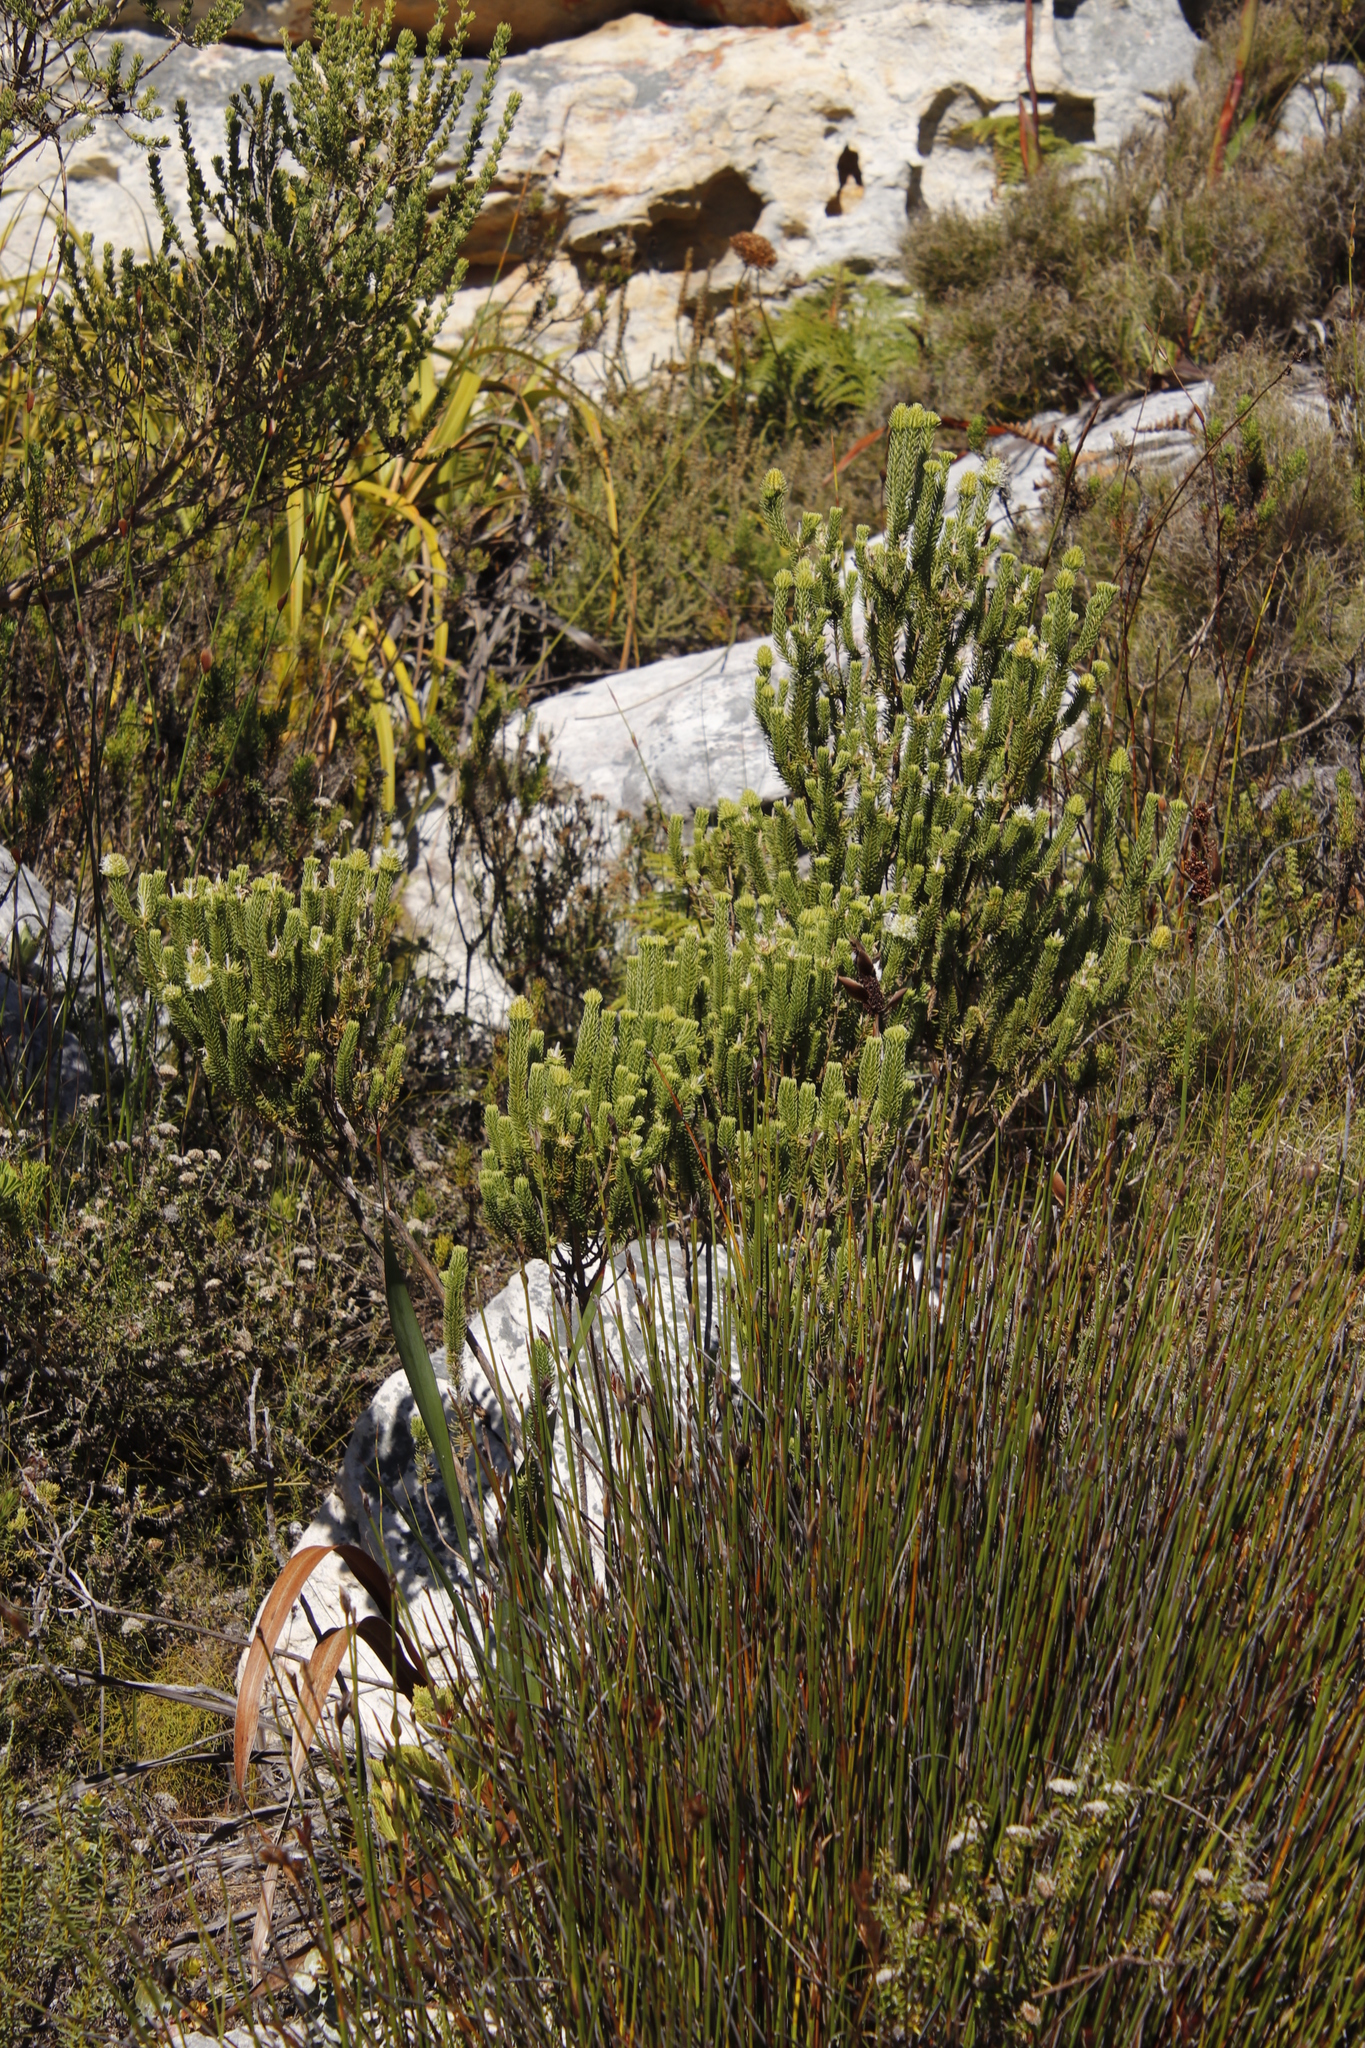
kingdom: Plantae
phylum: Tracheophyta
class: Magnoliopsida
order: Lamiales
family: Stilbaceae
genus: Stilbe
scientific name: Stilbe vestita
